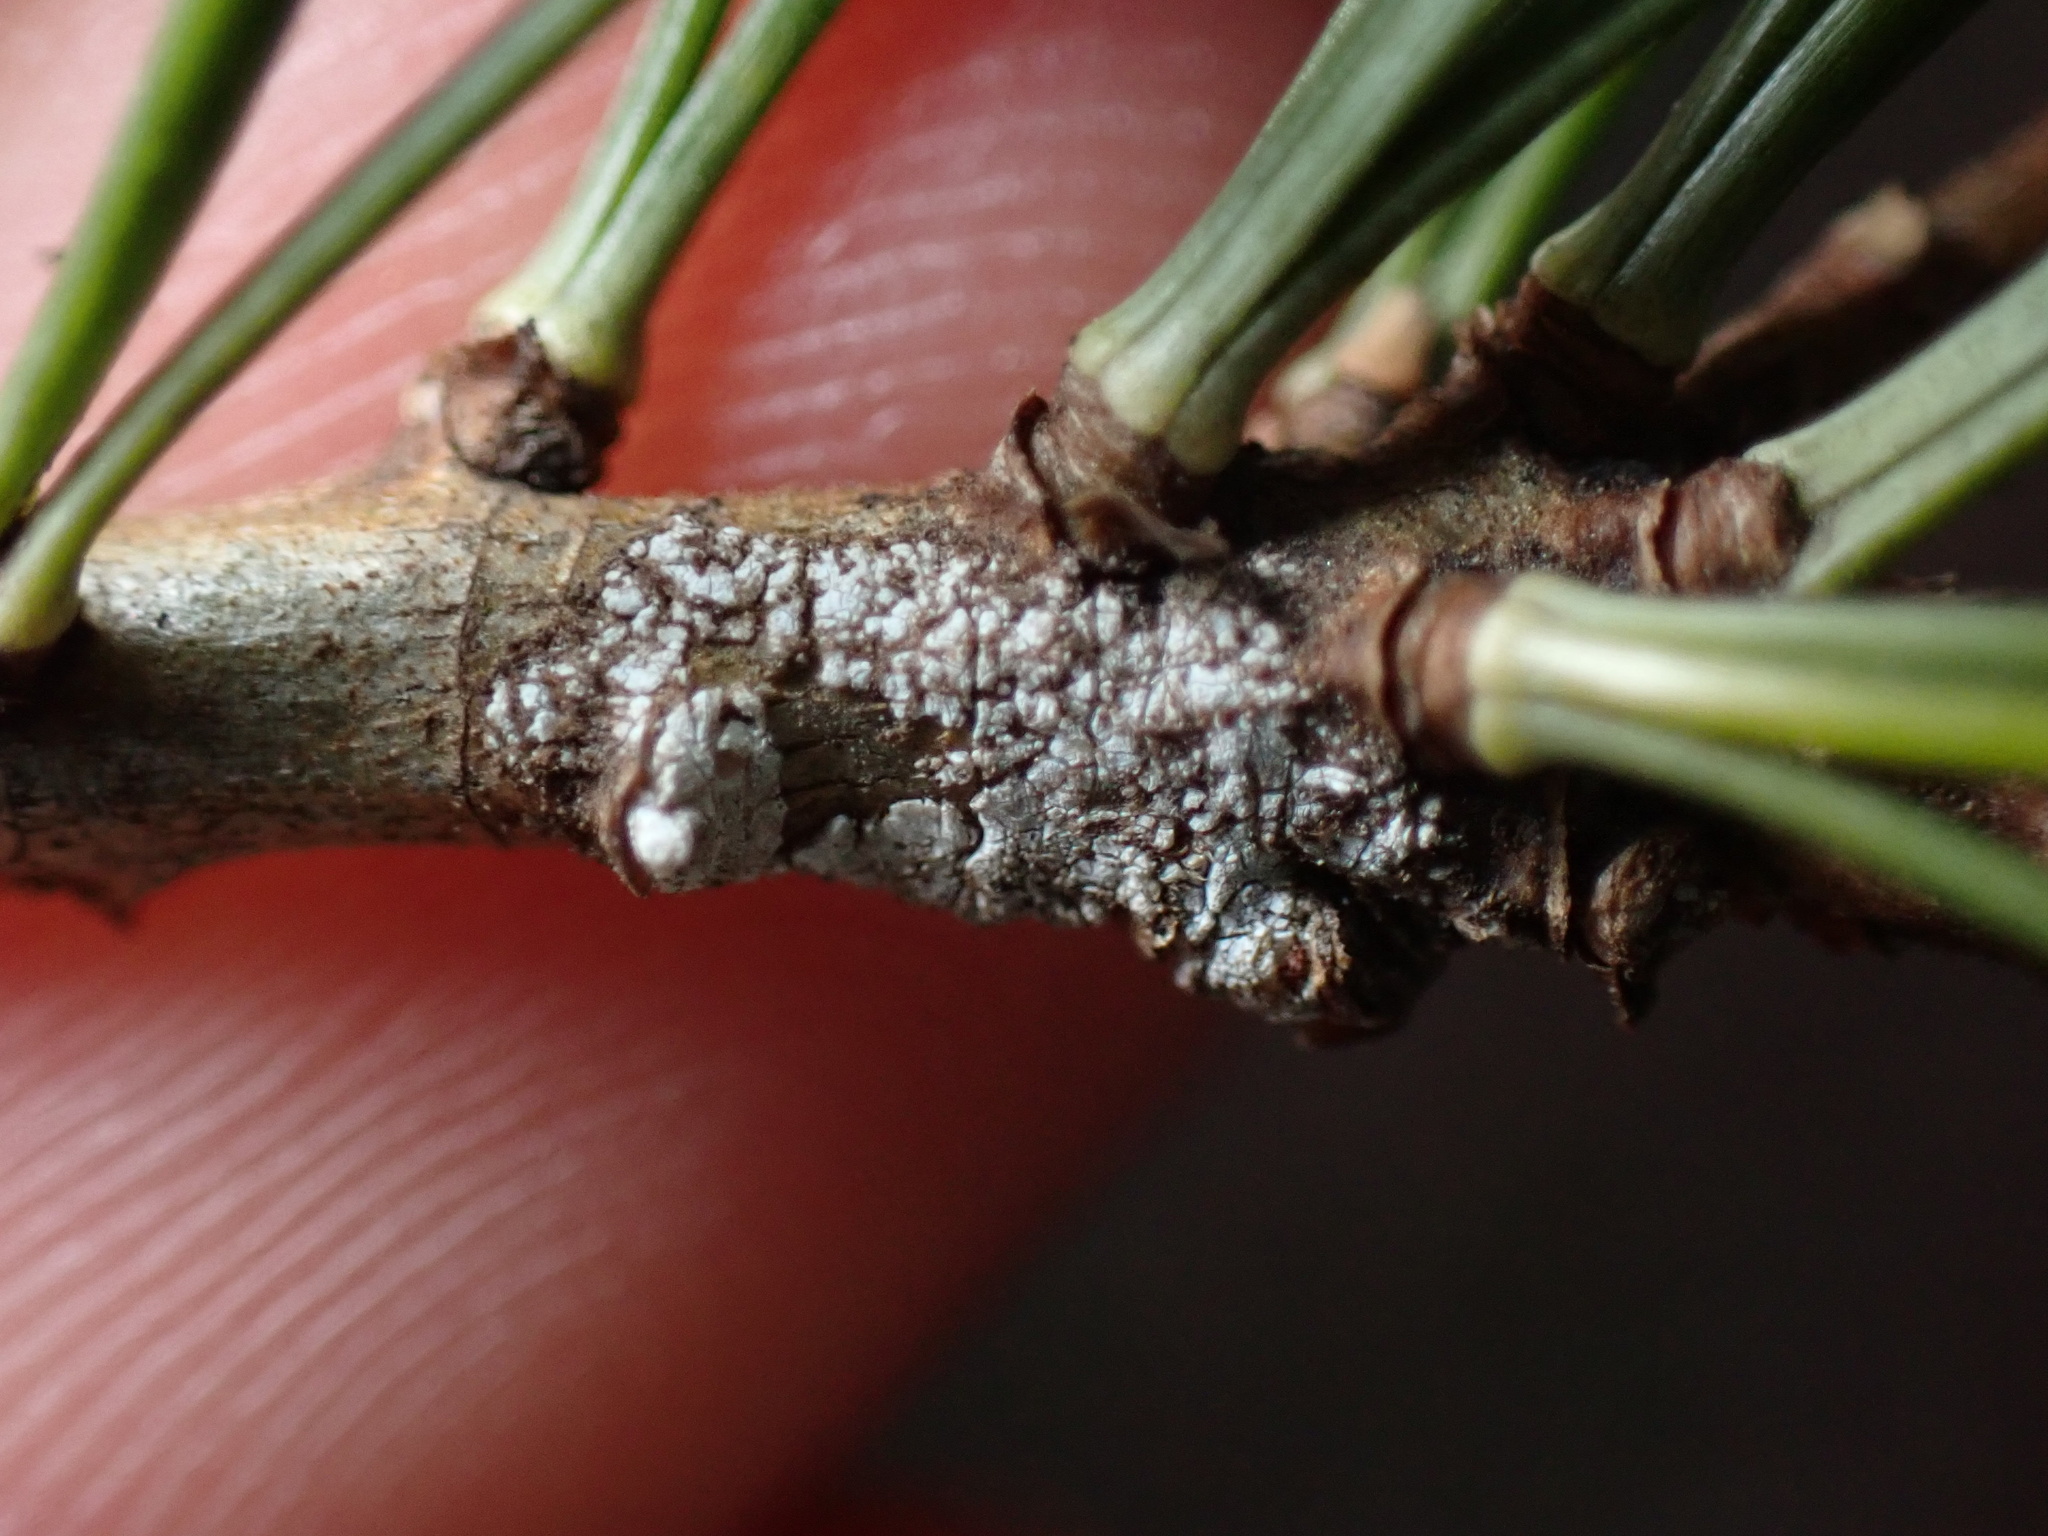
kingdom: Plantae
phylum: Tracheophyta
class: Pinopsida
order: Pinales
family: Pinaceae
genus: Pinus
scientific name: Pinus strobus
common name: Weymouth pine
